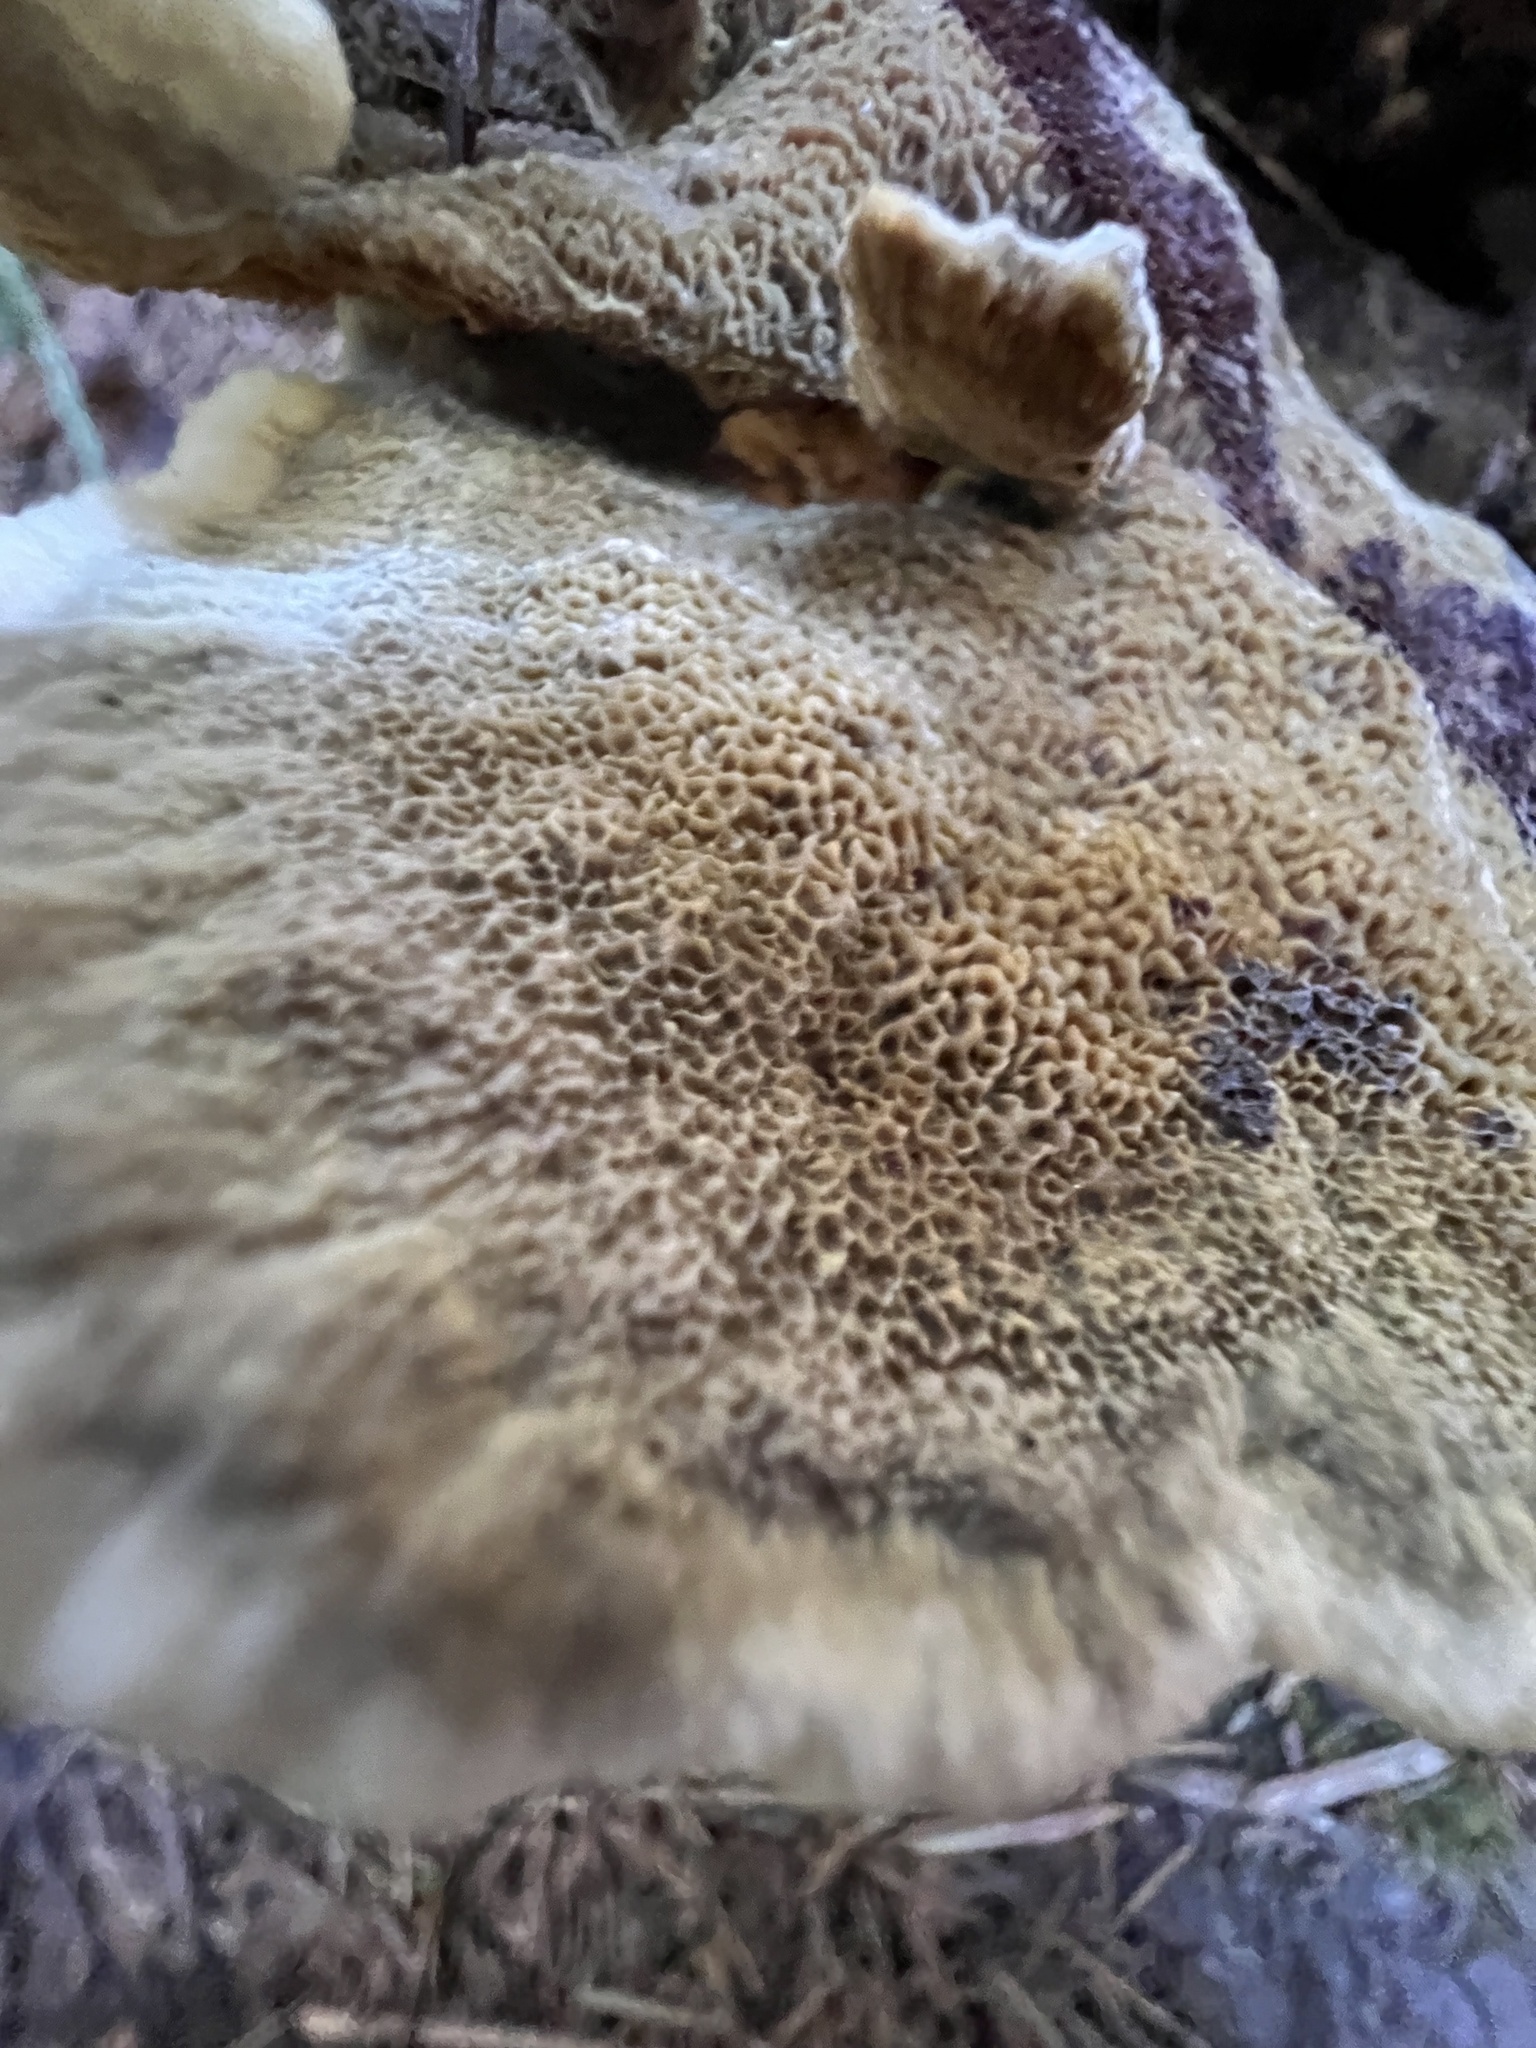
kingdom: Fungi
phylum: Basidiomycota
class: Agaricomycetes
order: Polyporales
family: Laetiporaceae
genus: Phaeolus
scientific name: Phaeolus schweinitzii
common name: Dyer's mazegill
